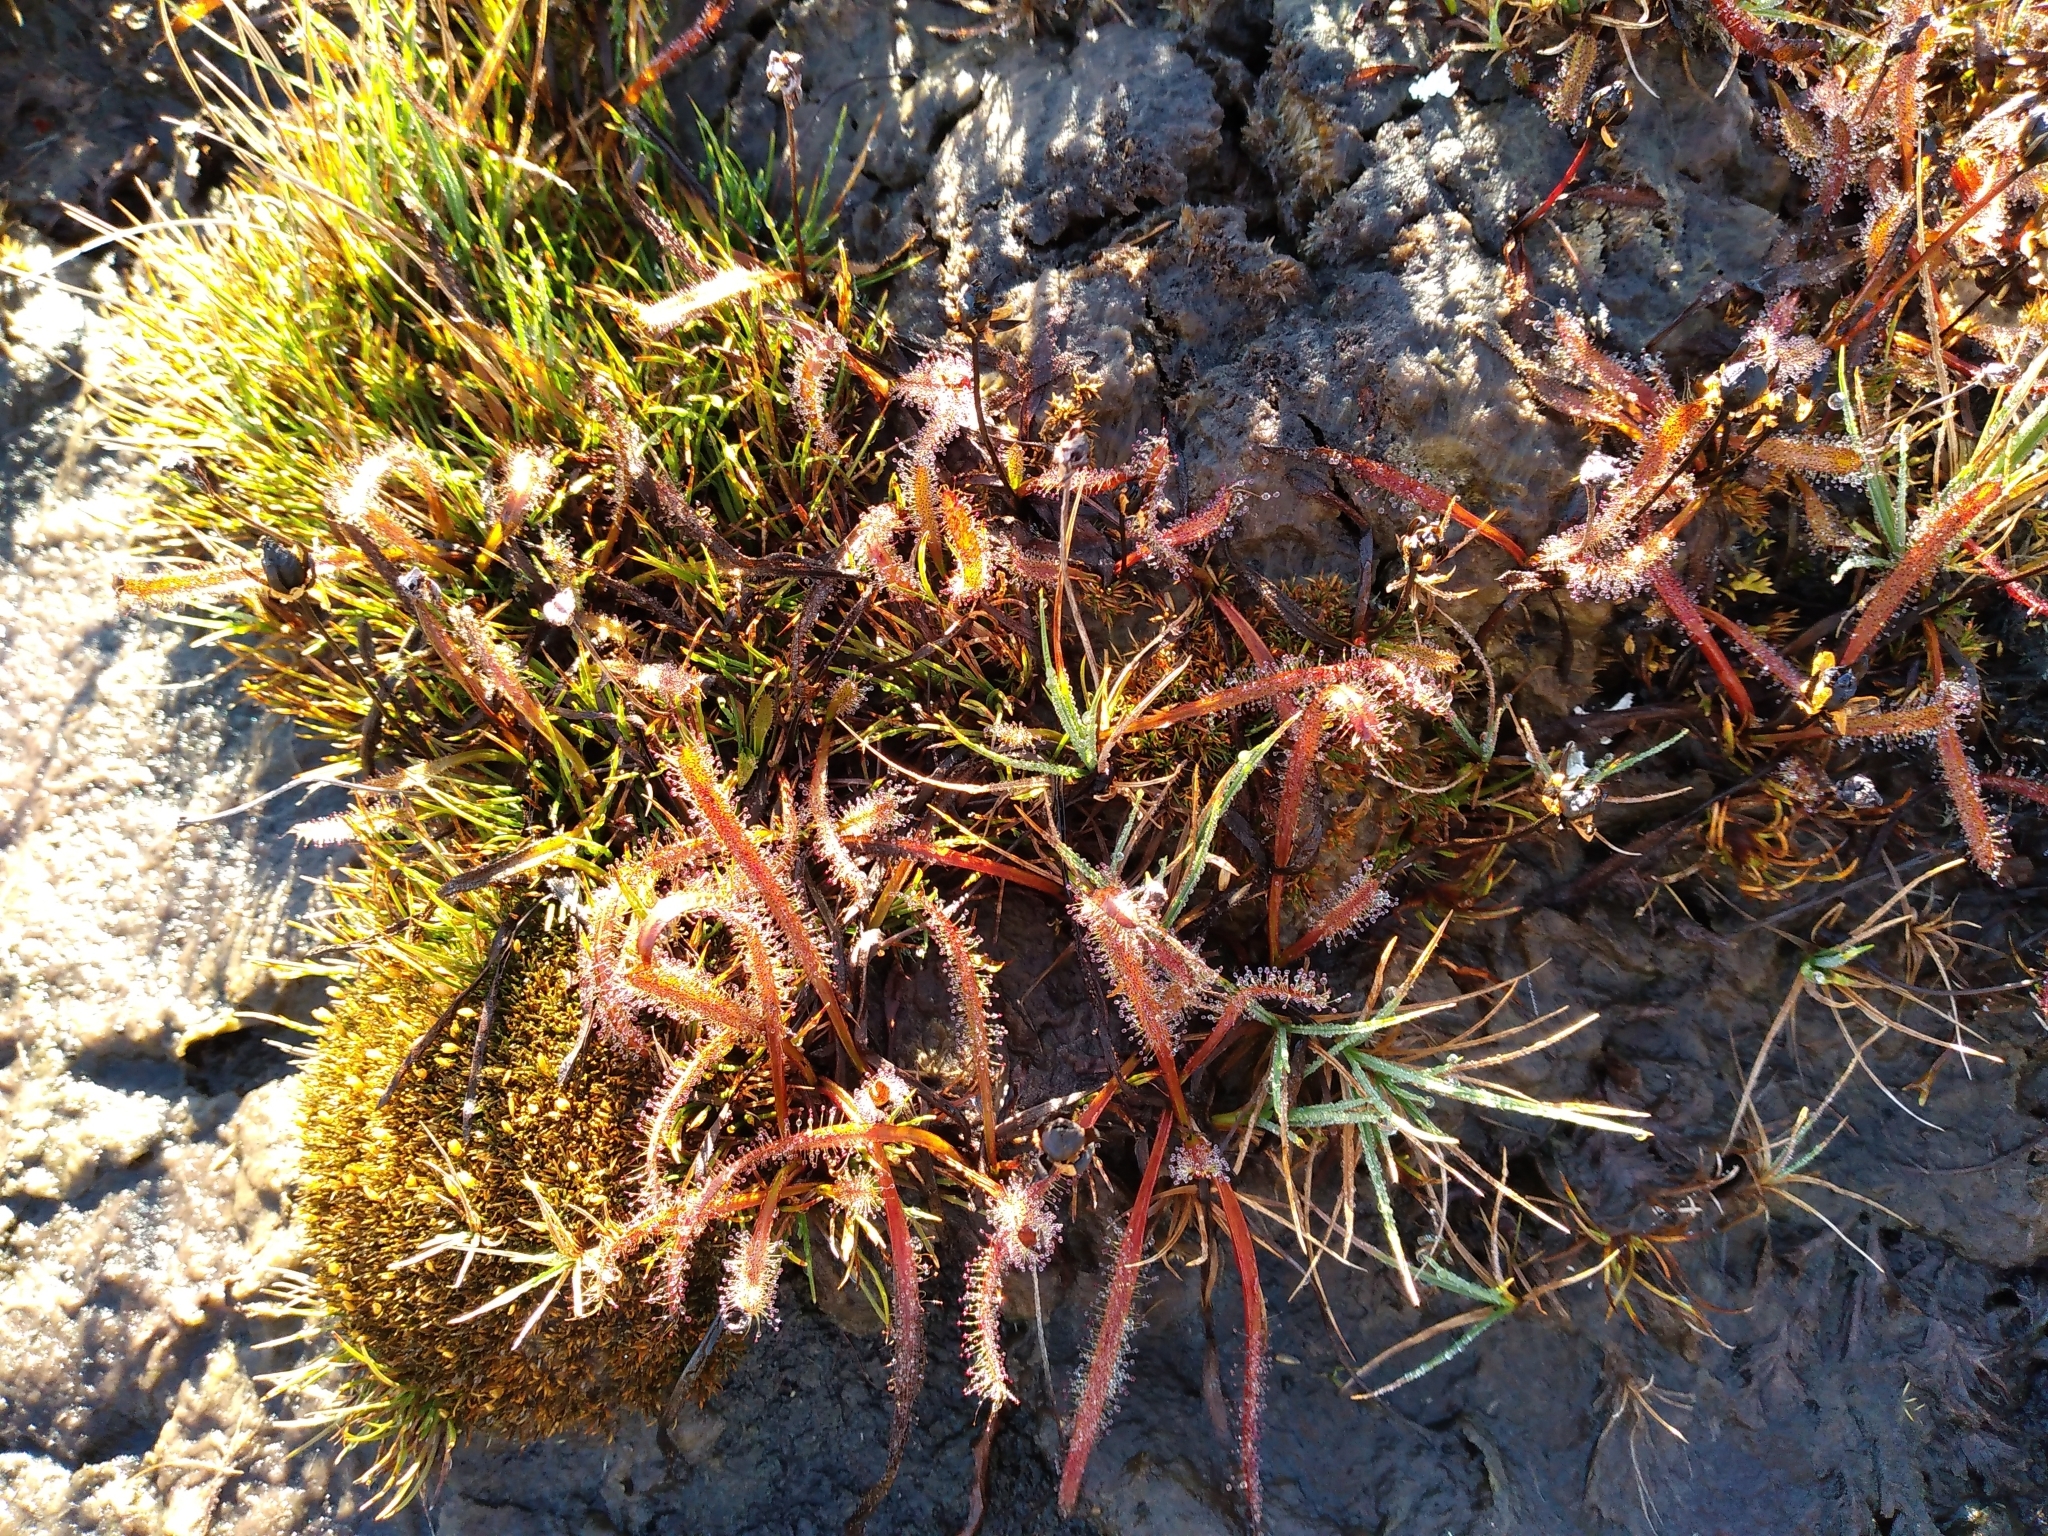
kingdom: Plantae
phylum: Tracheophyta
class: Magnoliopsida
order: Caryophyllales
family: Droseraceae
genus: Drosera
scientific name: Drosera arcturi
